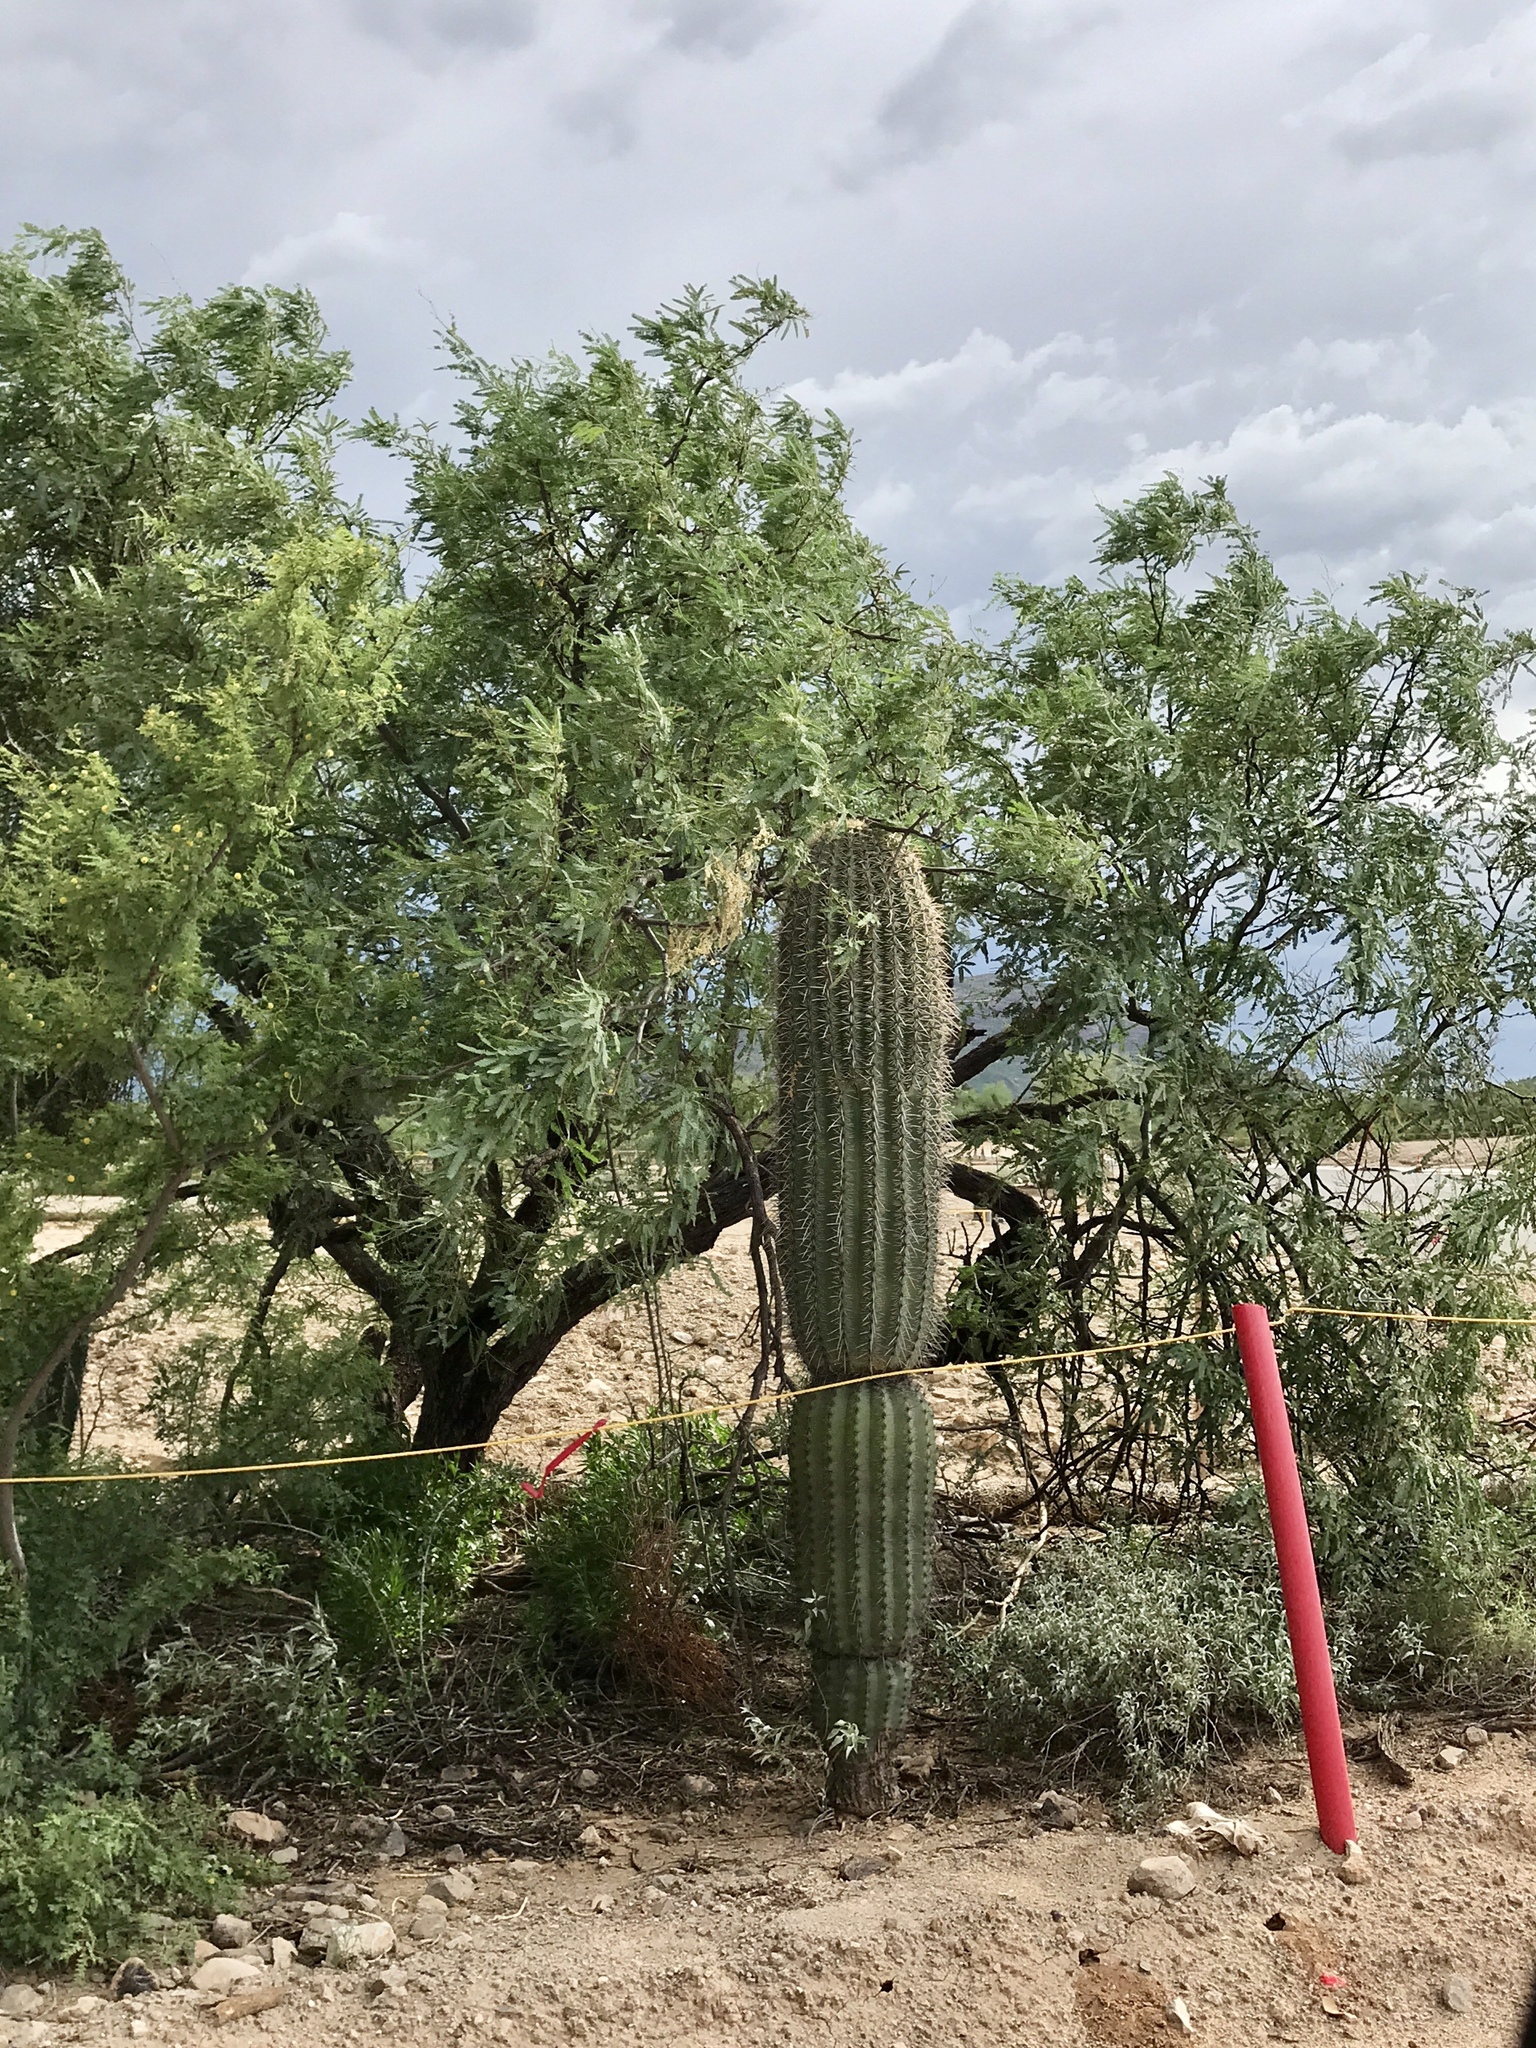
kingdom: Plantae
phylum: Tracheophyta
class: Magnoliopsida
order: Caryophyllales
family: Cactaceae
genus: Carnegiea
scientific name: Carnegiea gigantea
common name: Saguaro
